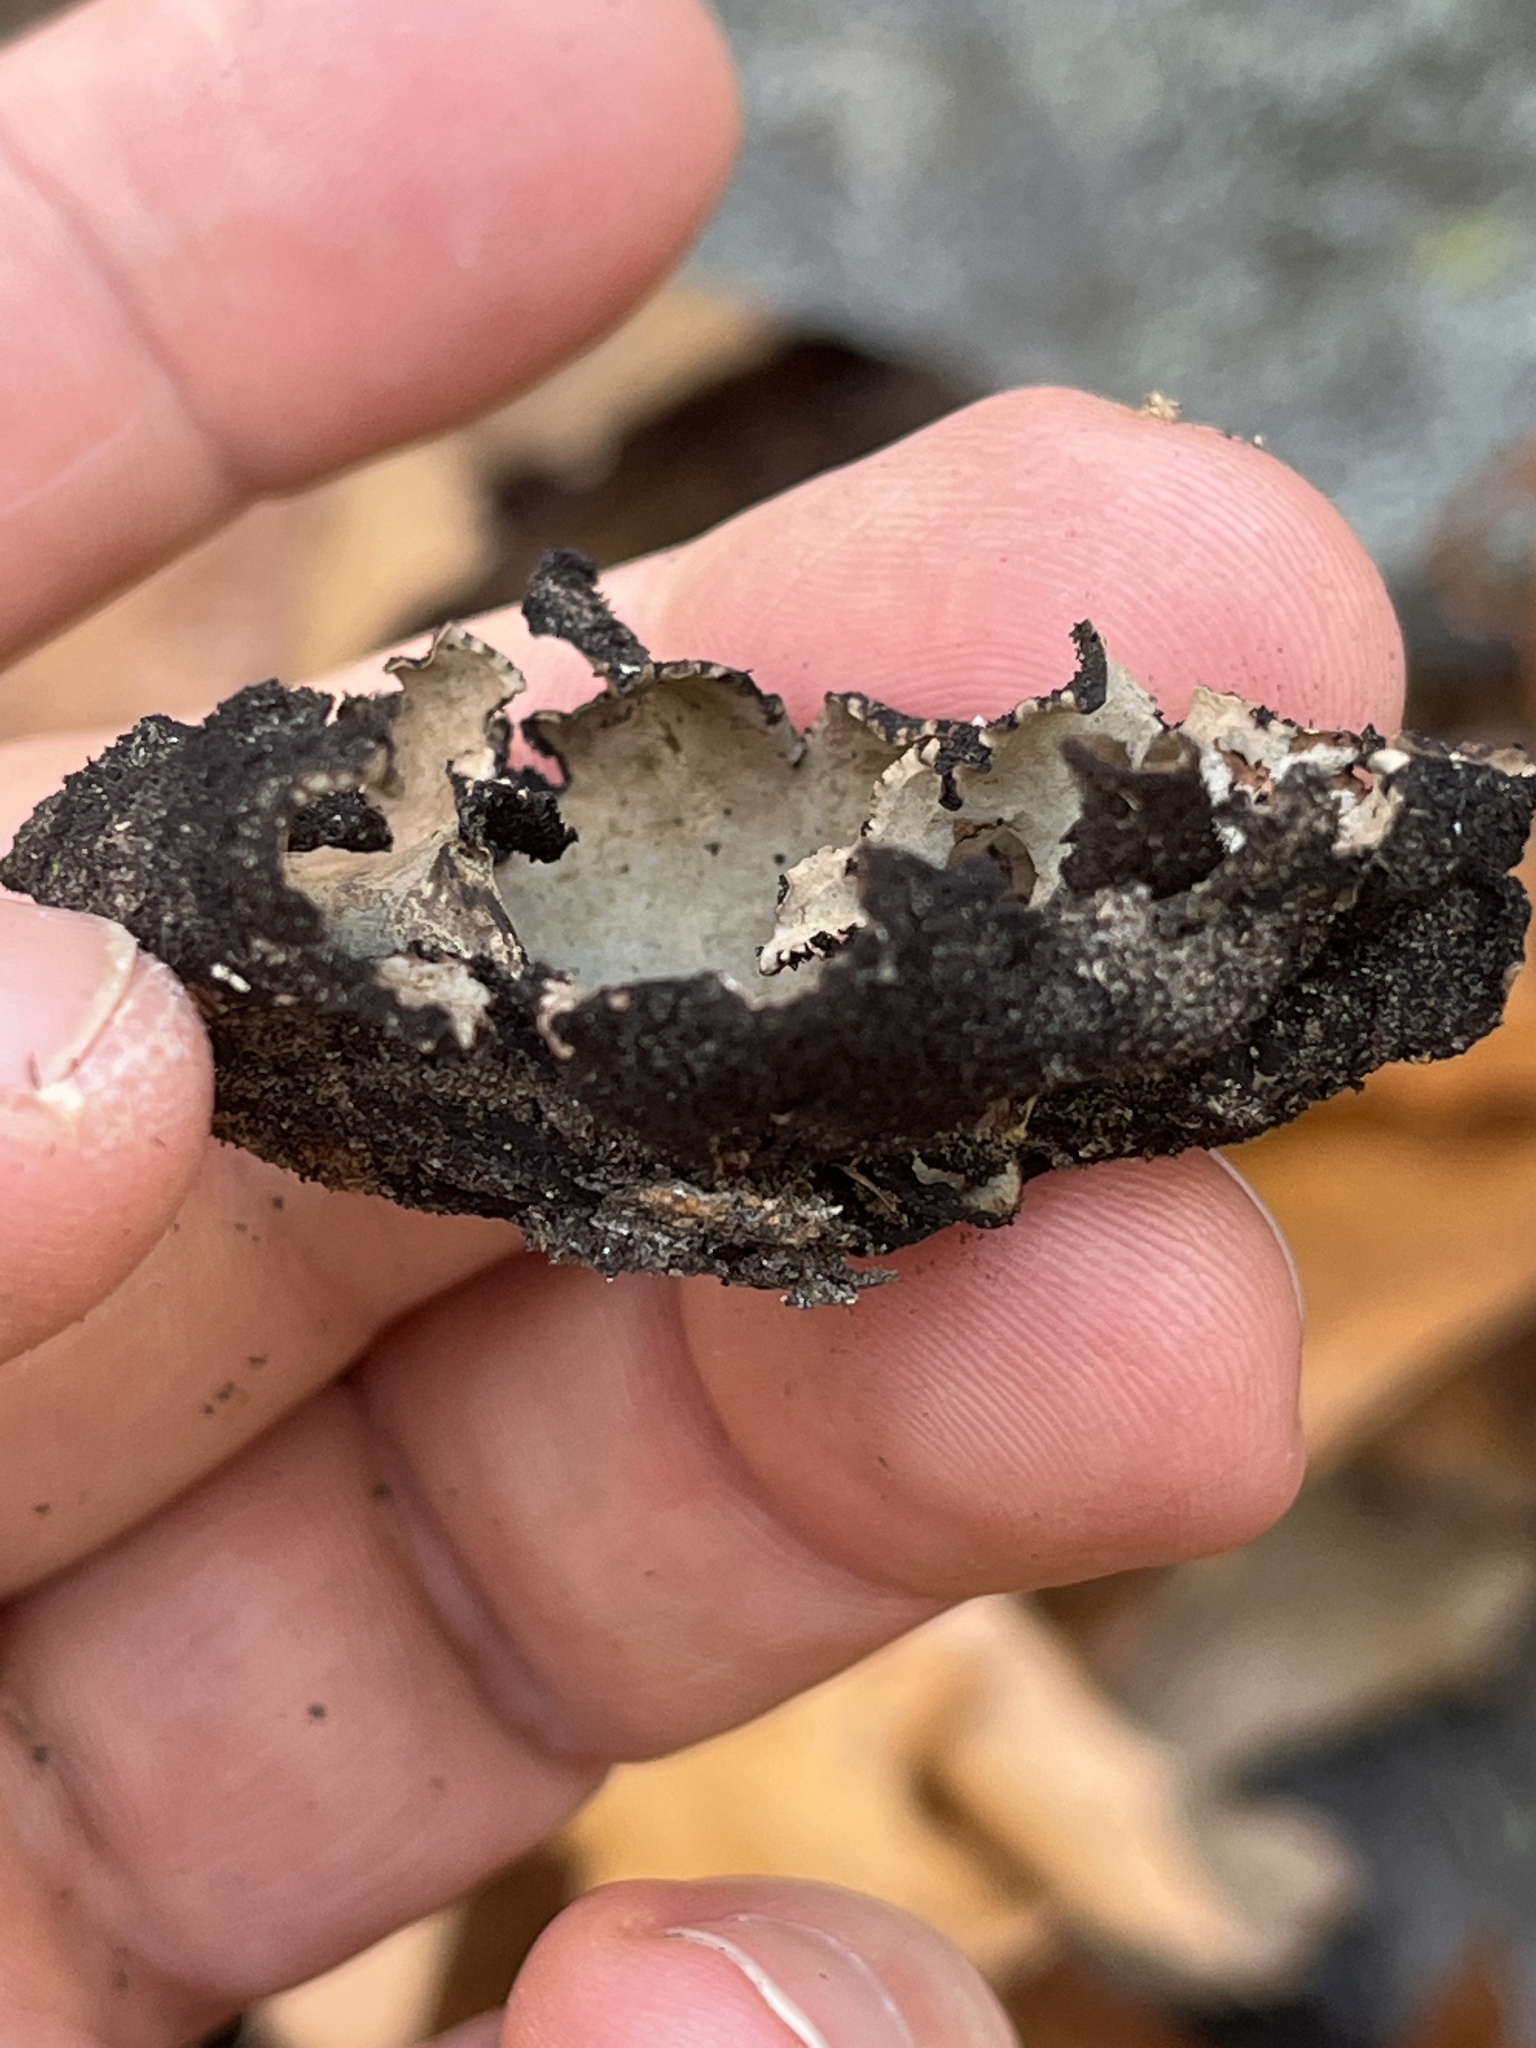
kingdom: Fungi
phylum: Ascomycota
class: Lecanoromycetes
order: Umbilicariales
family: Umbilicariaceae
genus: Umbilicaria
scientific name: Umbilicaria mammulata
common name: Smooth rock tripe
